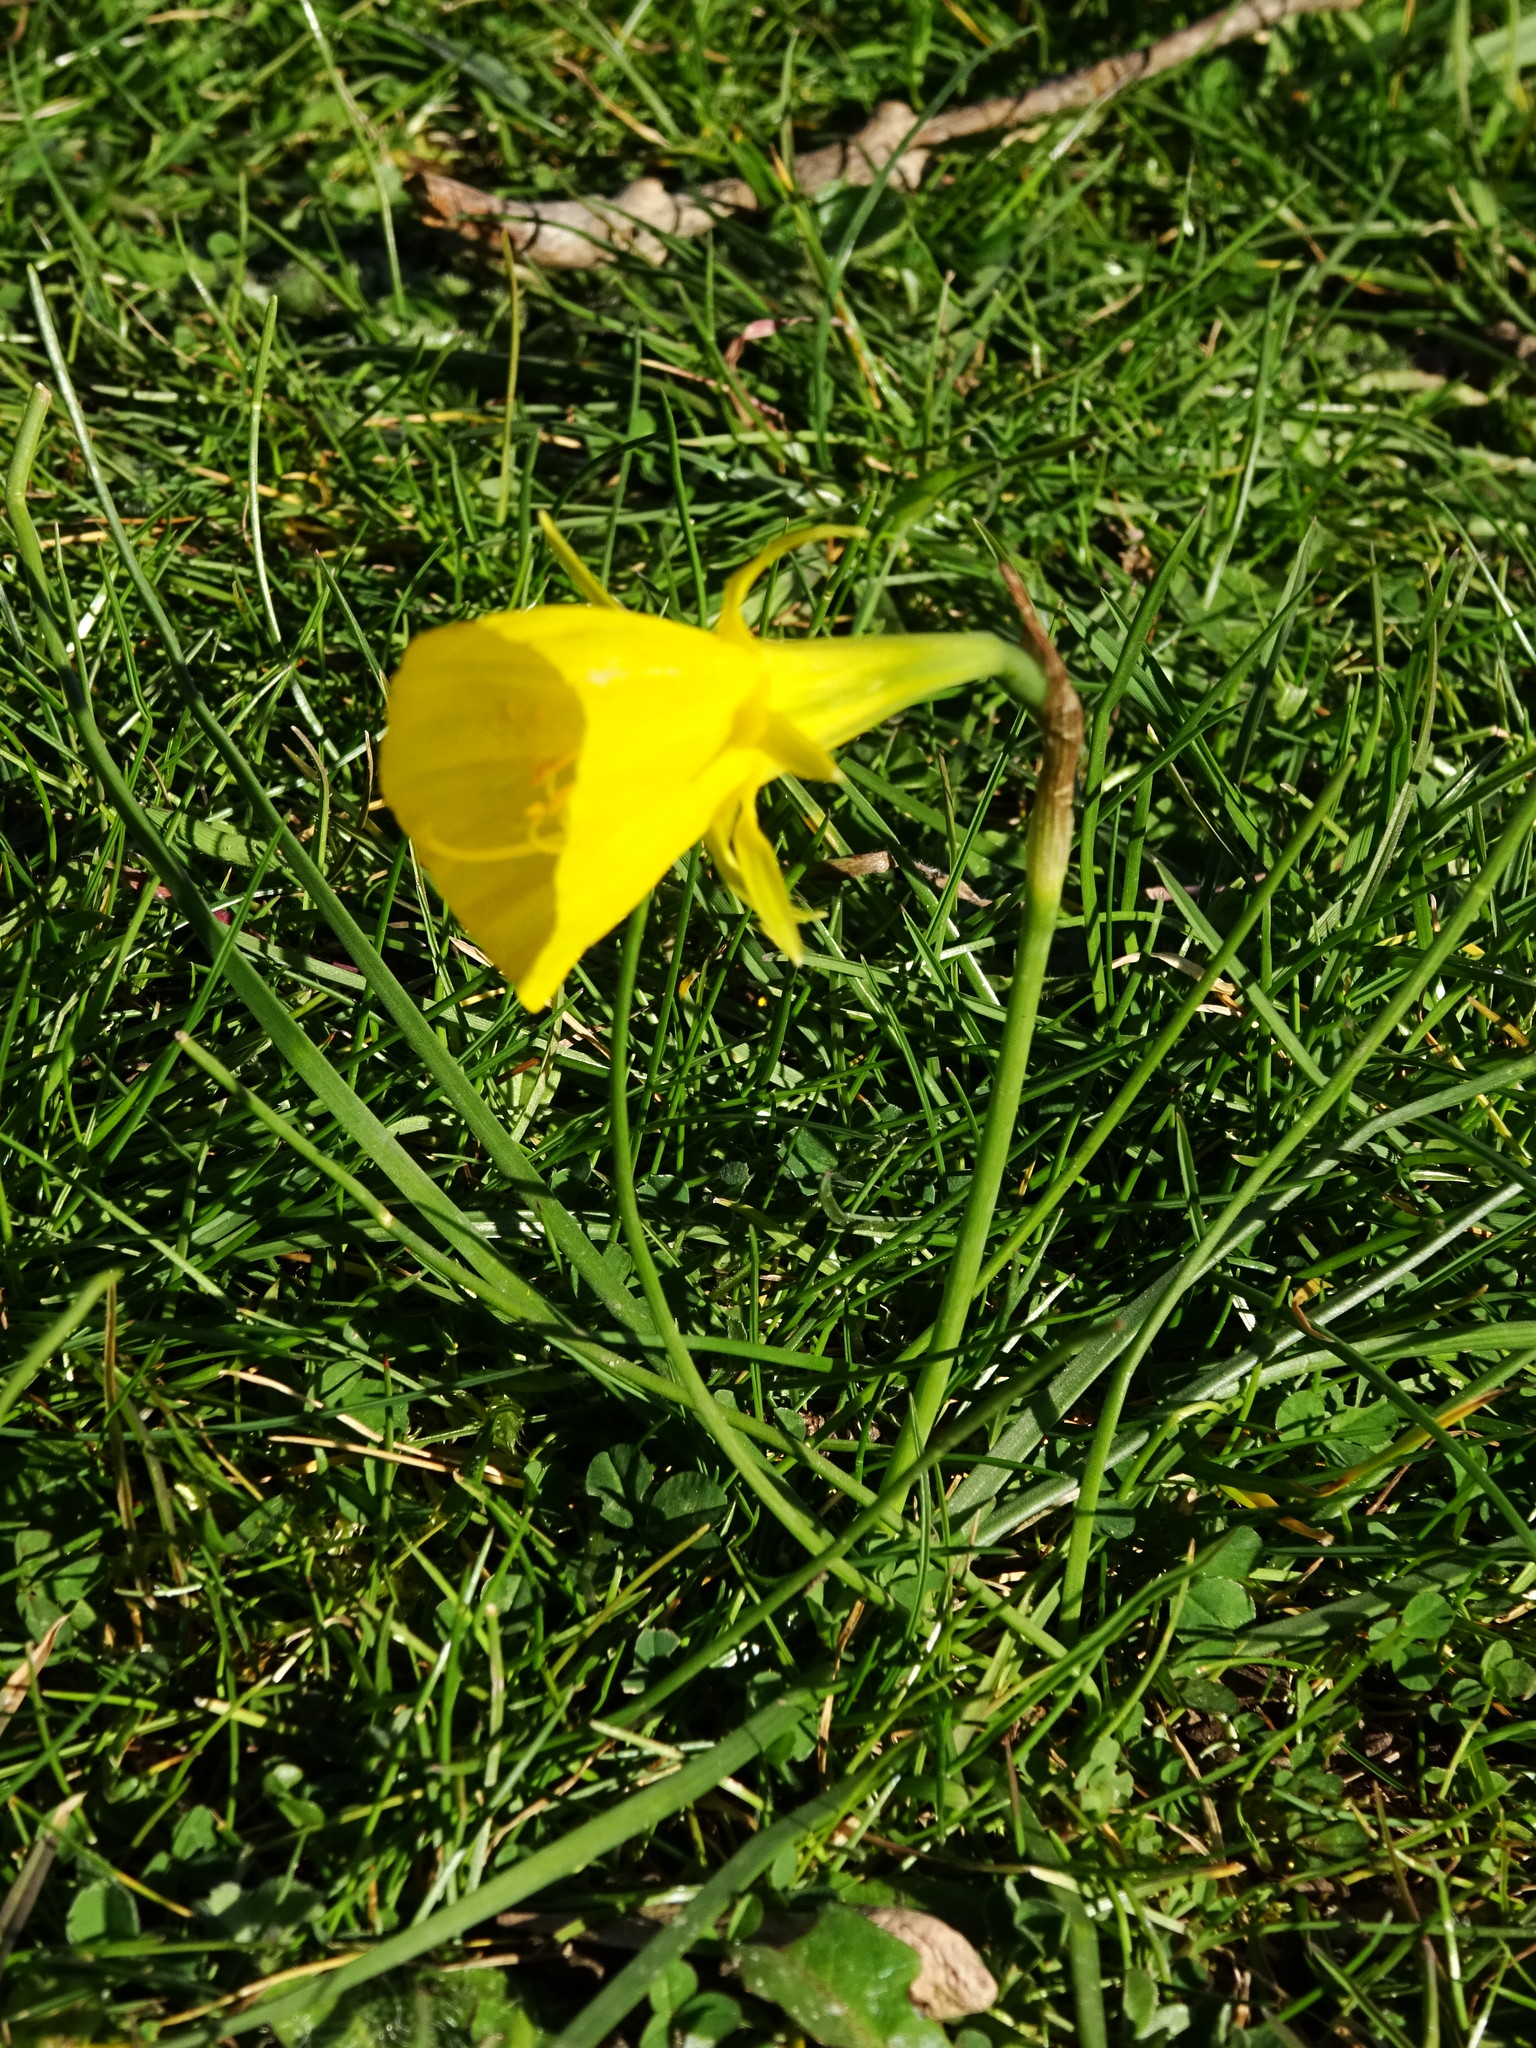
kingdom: Plantae
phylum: Tracheophyta
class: Liliopsida
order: Asparagales
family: Amaryllidaceae
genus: Narcissus
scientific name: Narcissus bulbocodium
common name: Hoop-petticoat daffodil
